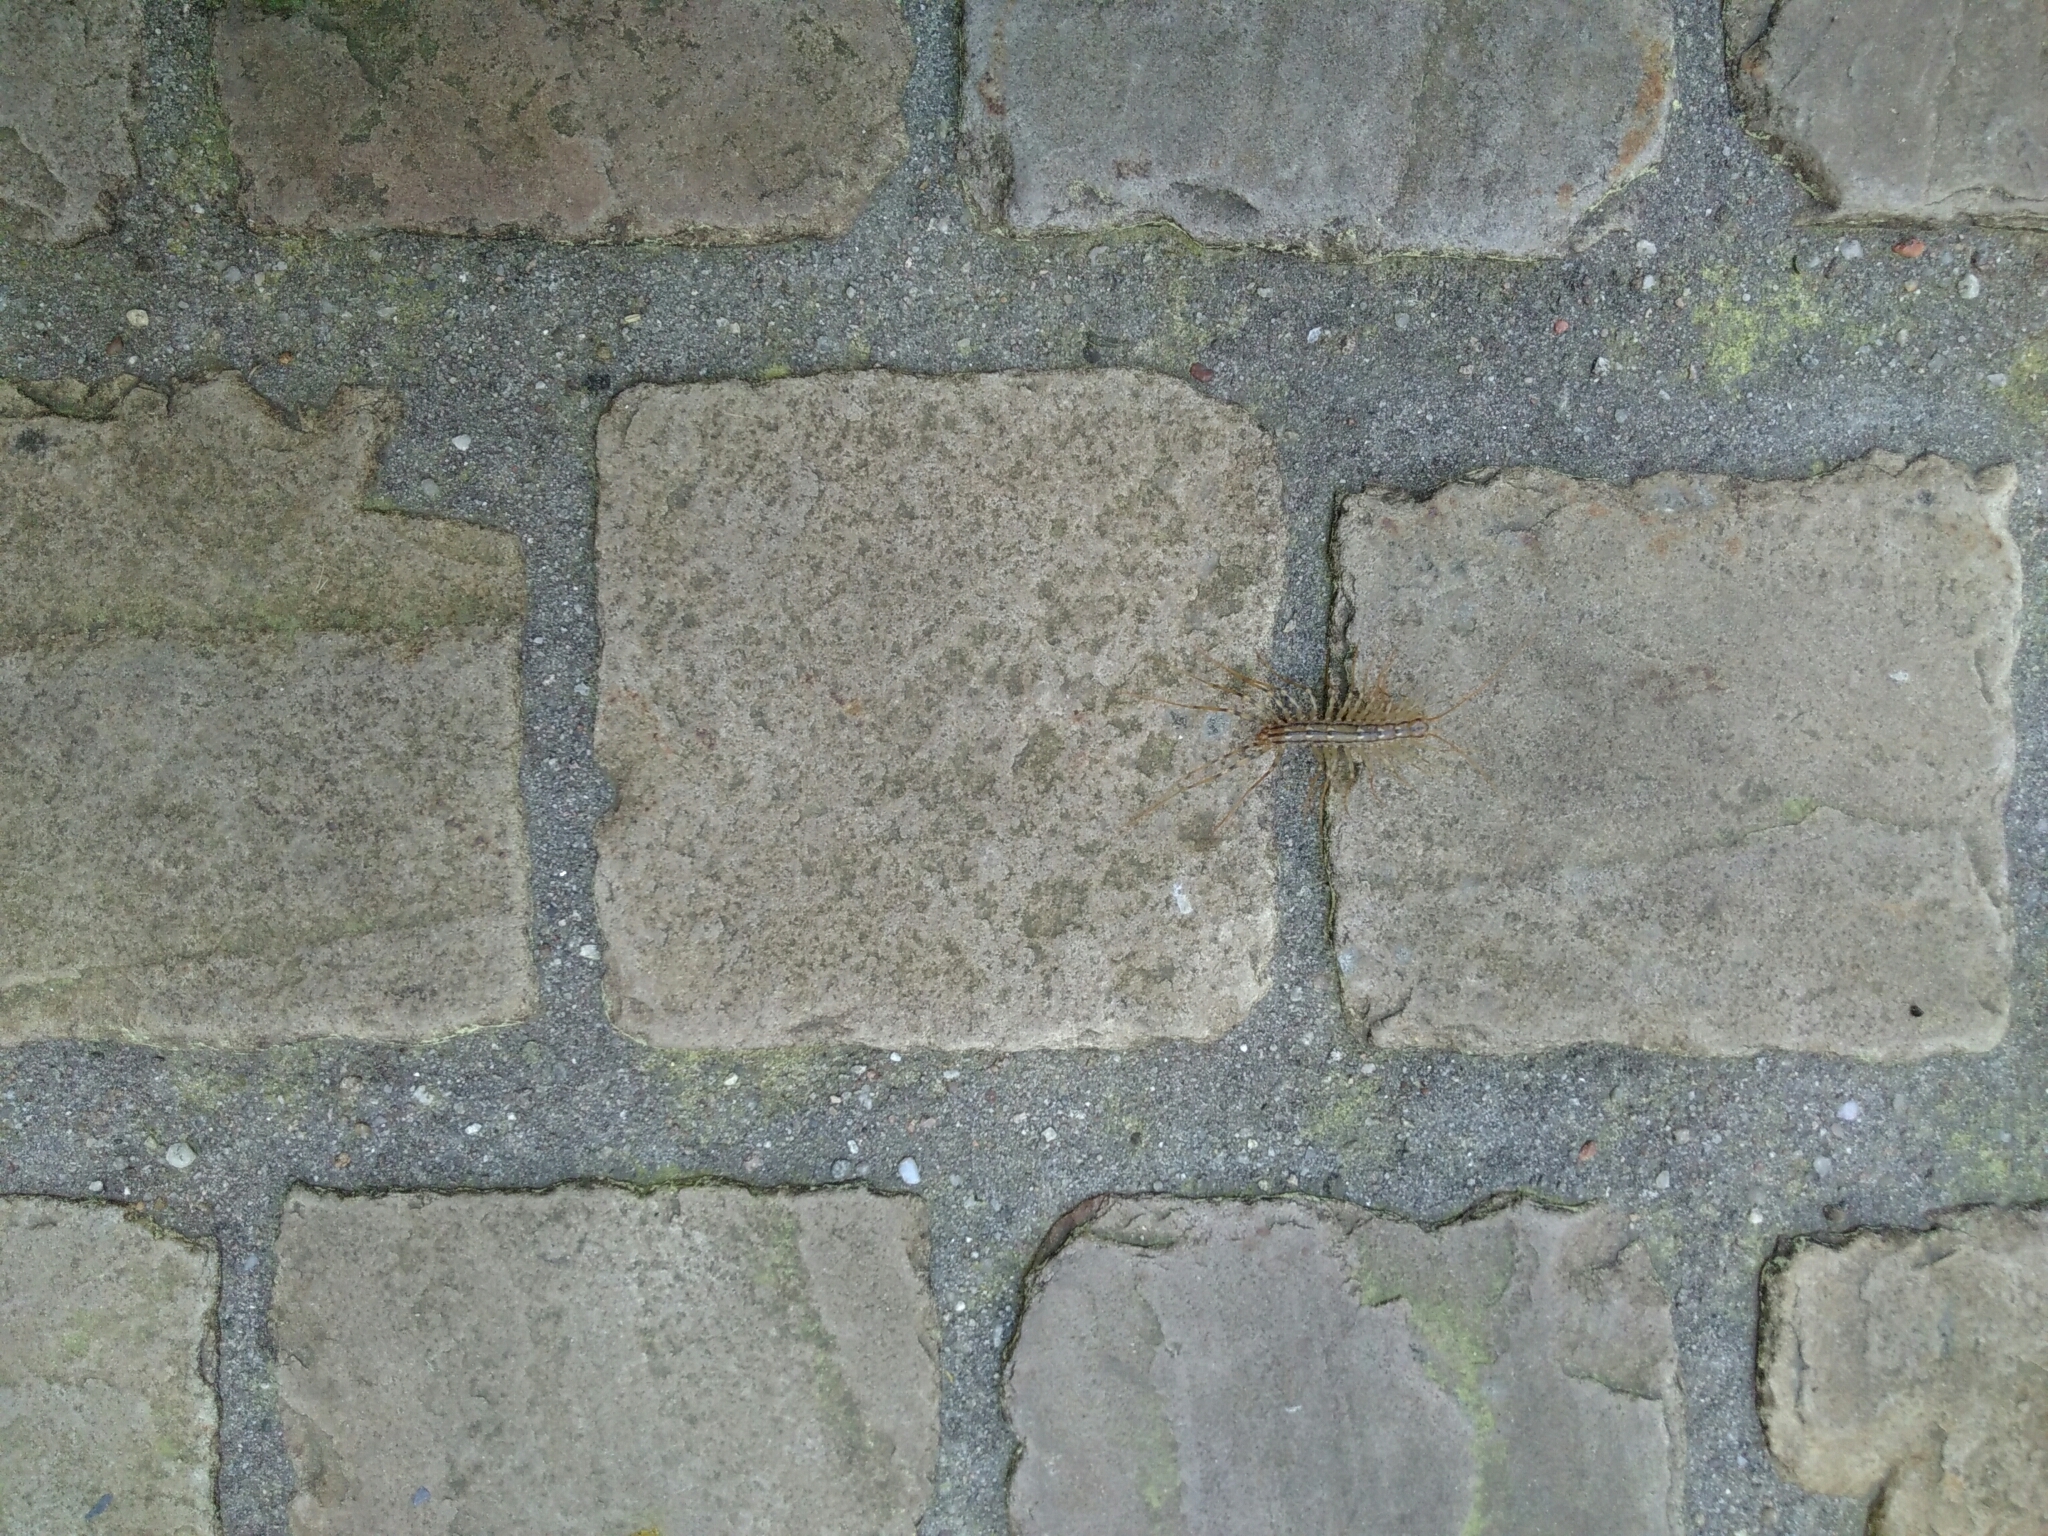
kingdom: Animalia
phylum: Arthropoda
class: Chilopoda
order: Scutigeromorpha
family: Scutigeridae
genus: Scutigera
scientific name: Scutigera coleoptrata
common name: House centipede
